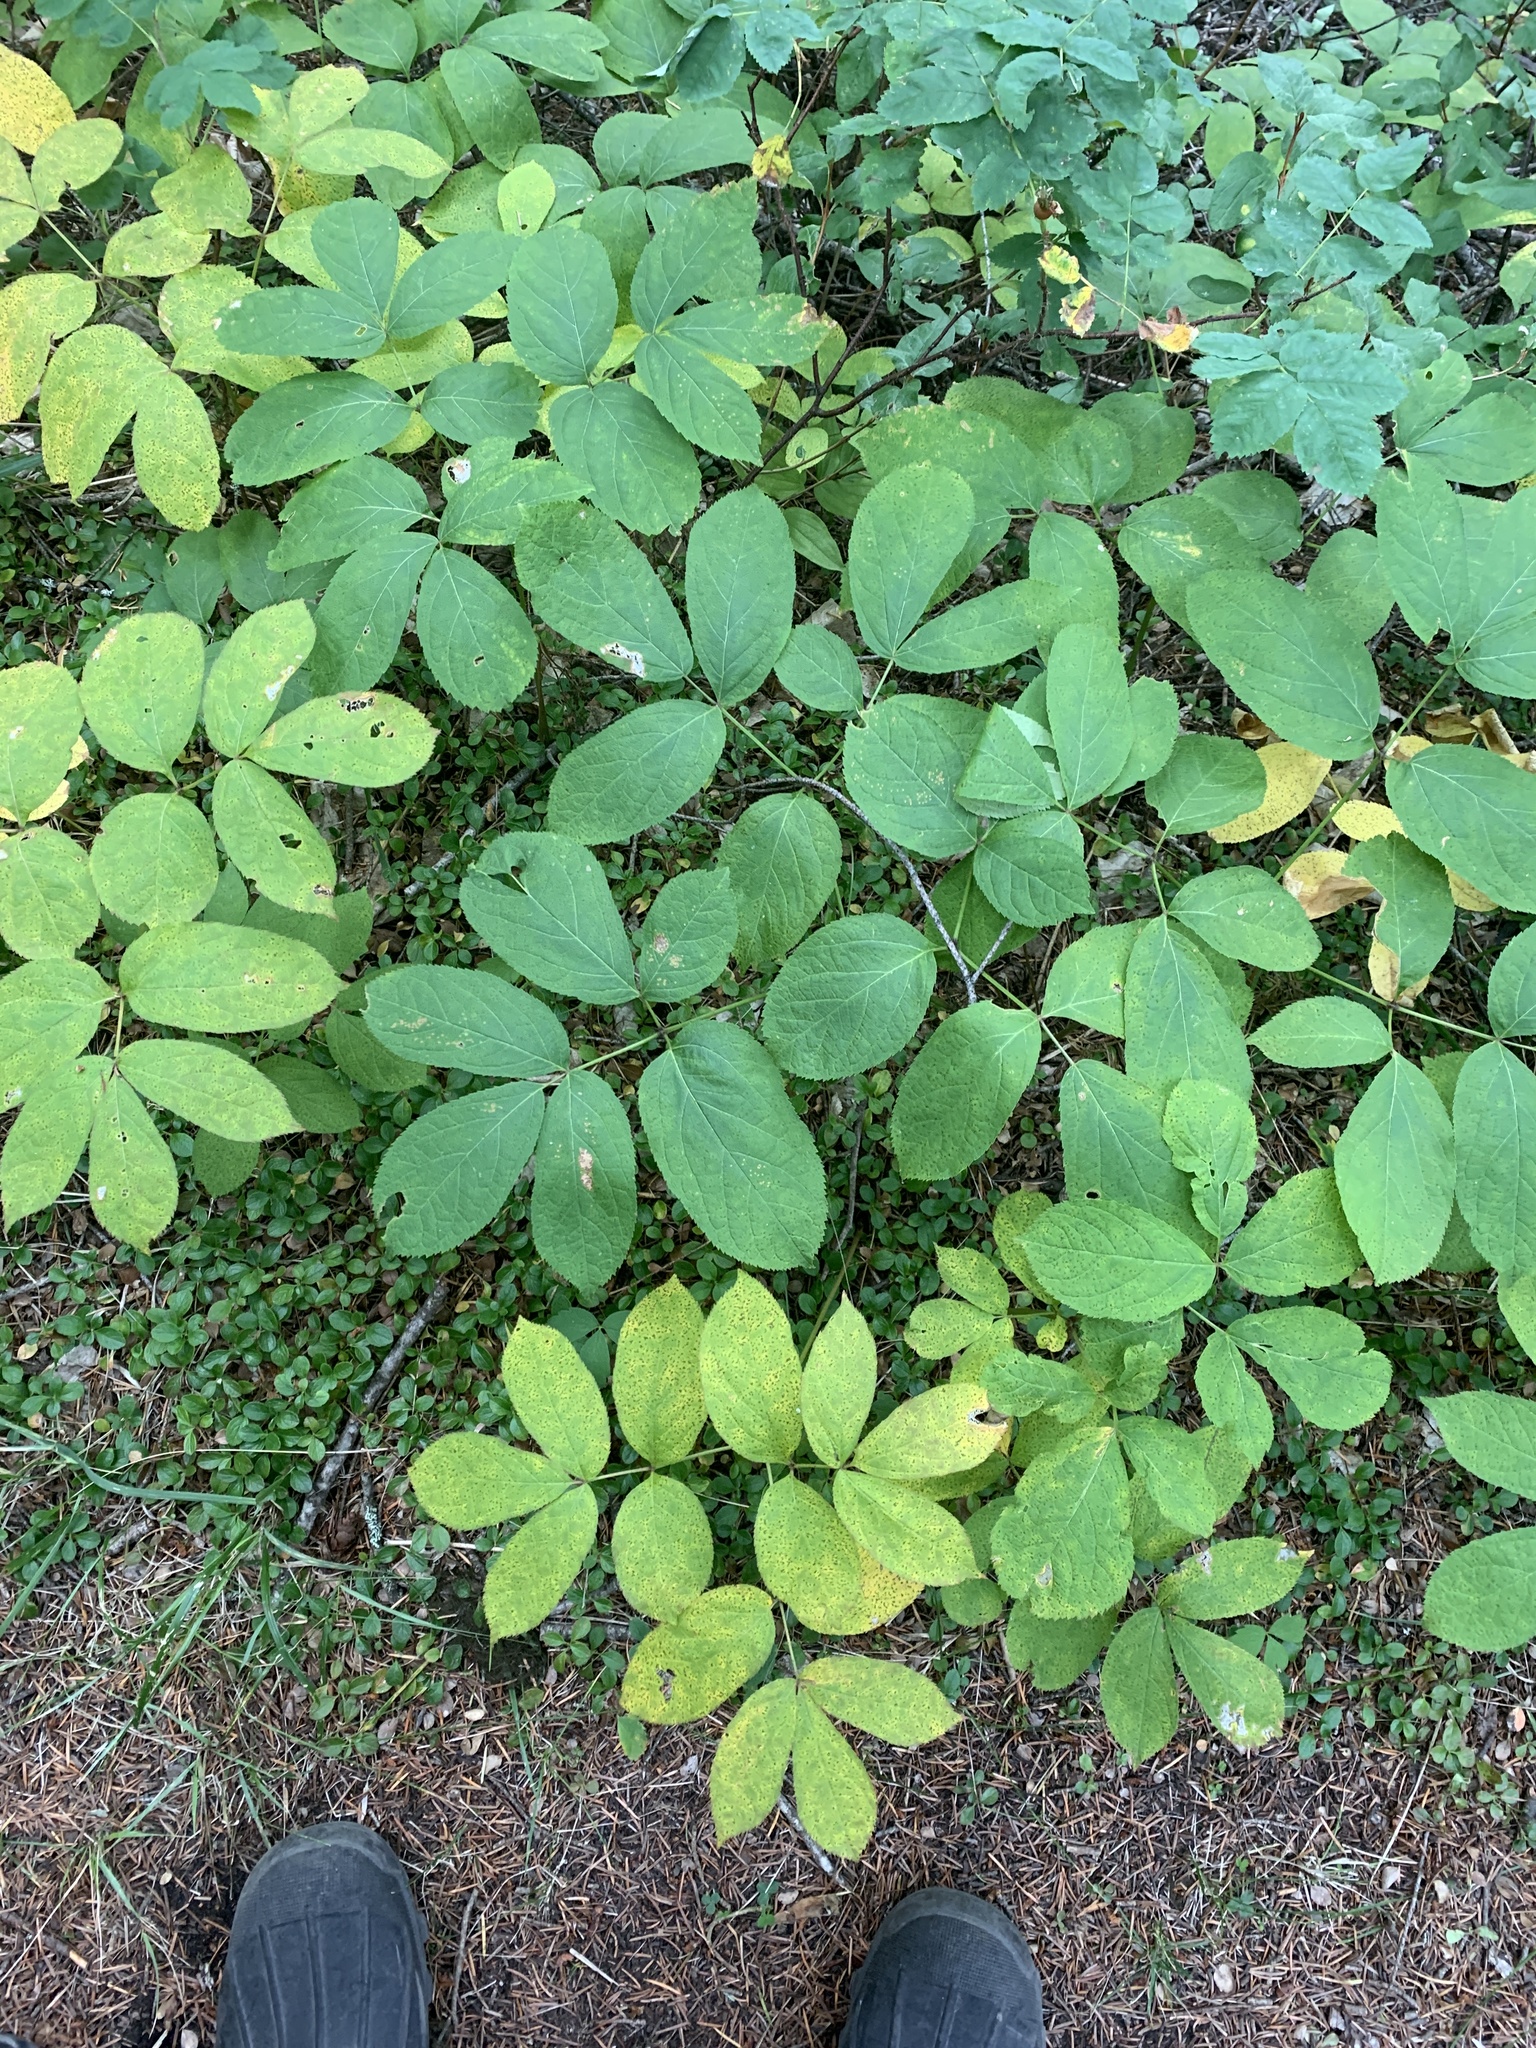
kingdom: Plantae
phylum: Tracheophyta
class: Magnoliopsida
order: Apiales
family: Araliaceae
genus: Aralia
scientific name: Aralia nudicaulis
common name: Wild sarsaparilla
